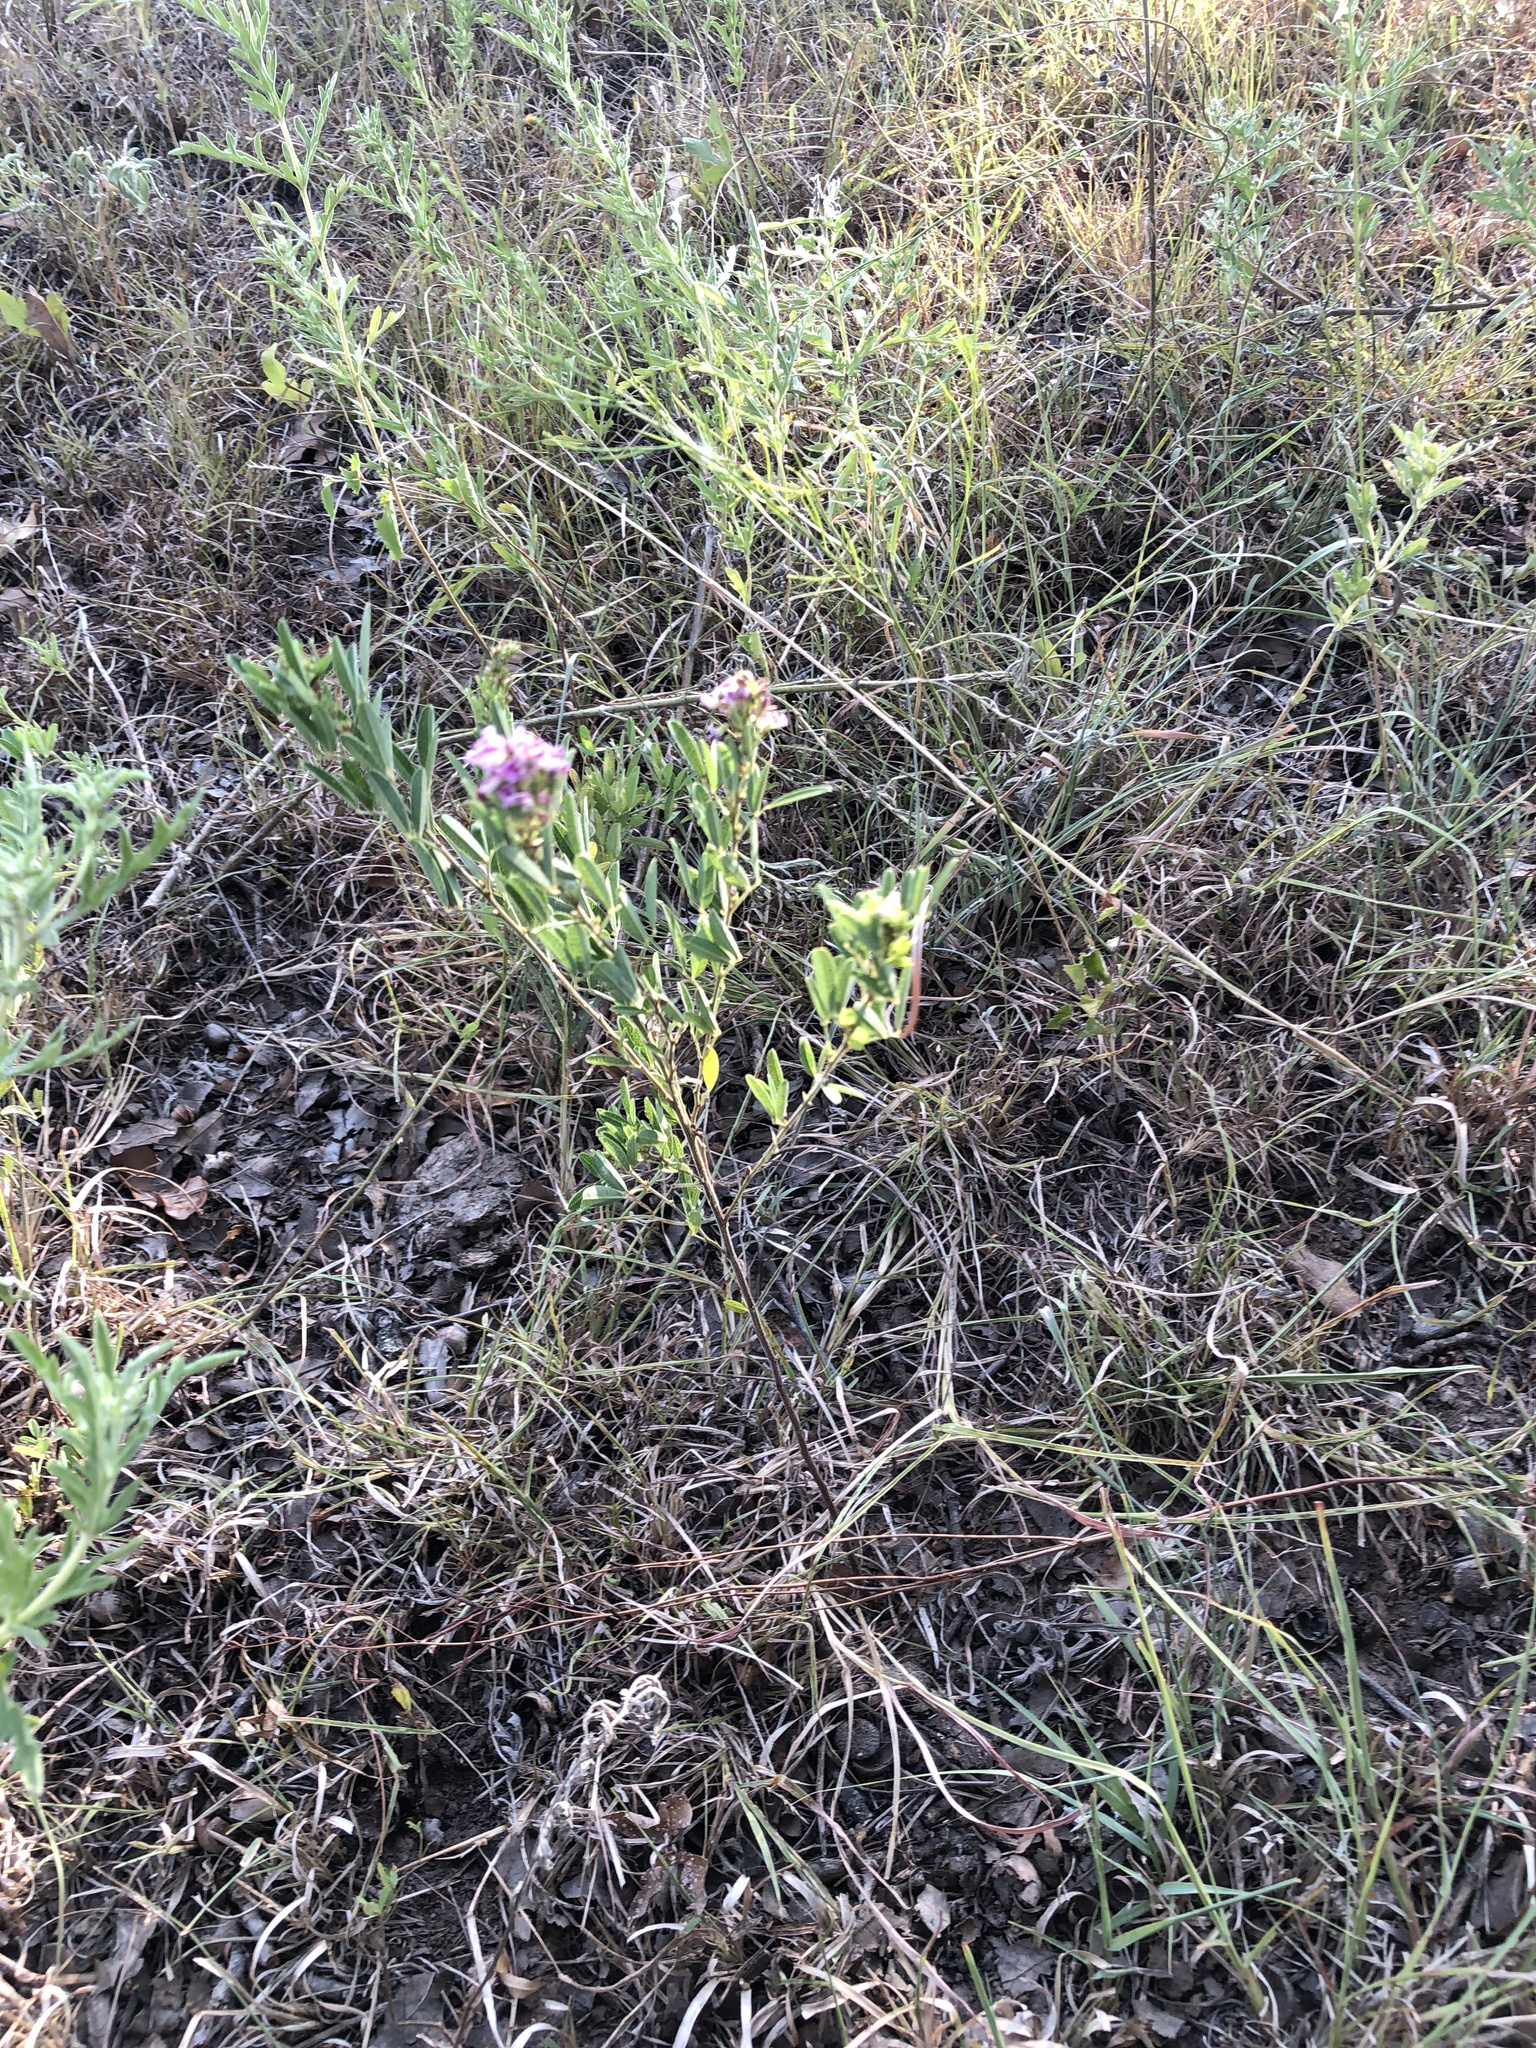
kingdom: Plantae
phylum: Tracheophyta
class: Magnoliopsida
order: Fabales
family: Fabaceae
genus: Lespedeza
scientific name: Lespedeza virginica
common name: Slender bush-clover
